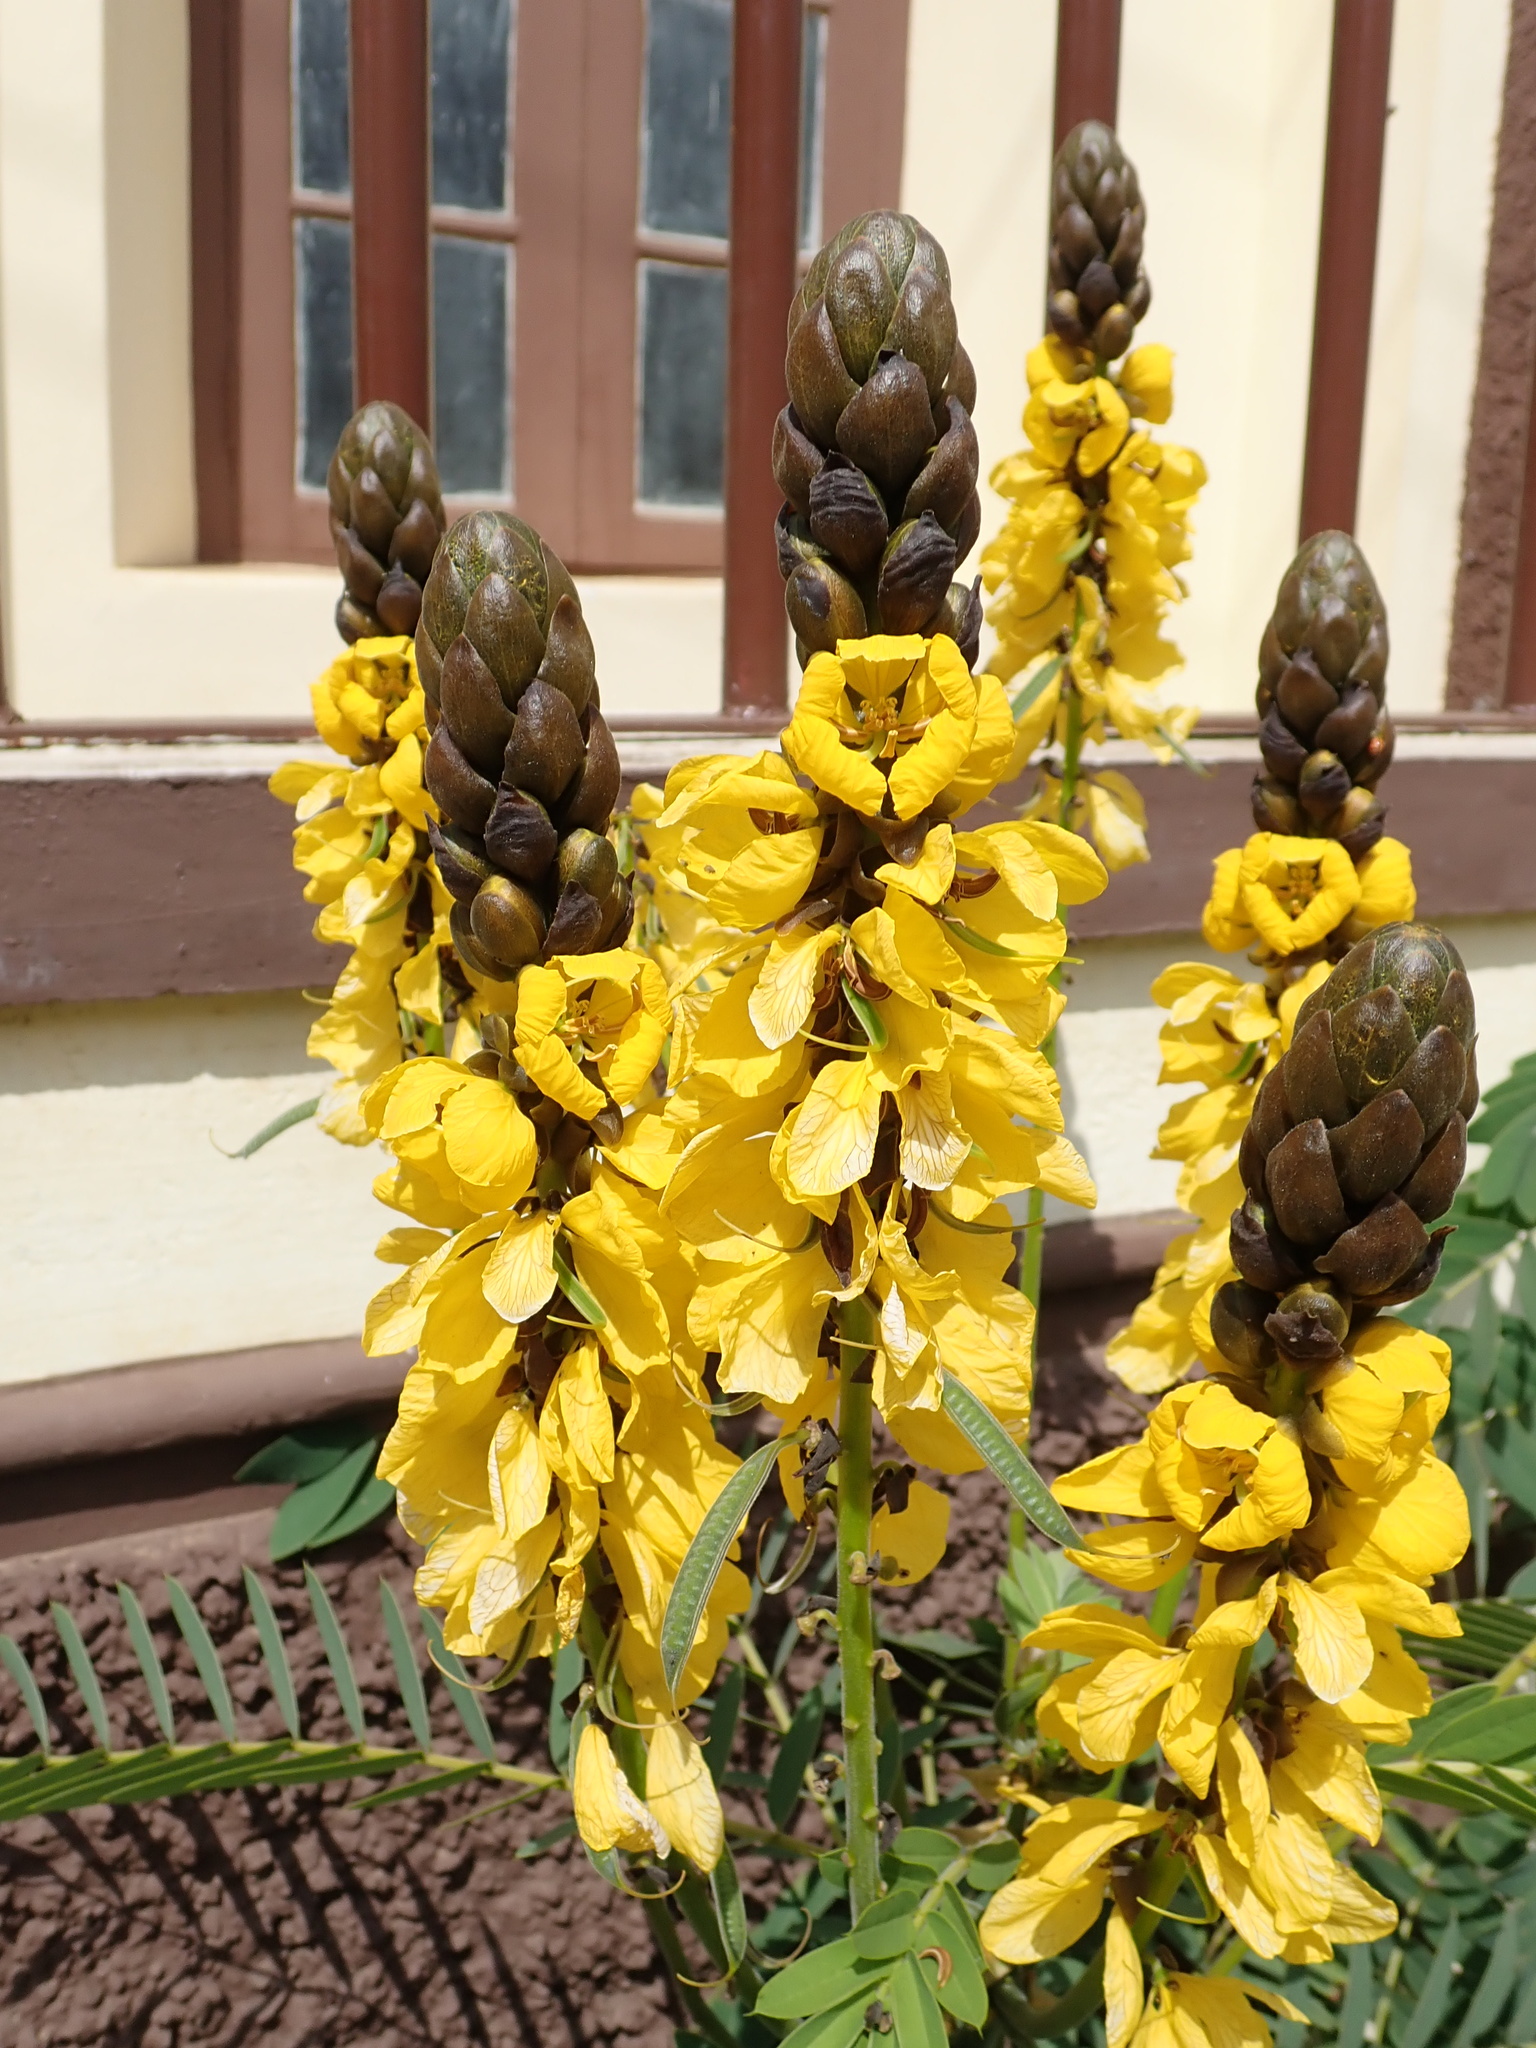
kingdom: Plantae
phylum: Tracheophyta
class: Magnoliopsida
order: Fabales
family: Fabaceae
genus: Senna
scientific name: Senna didymobotrya
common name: African senna
